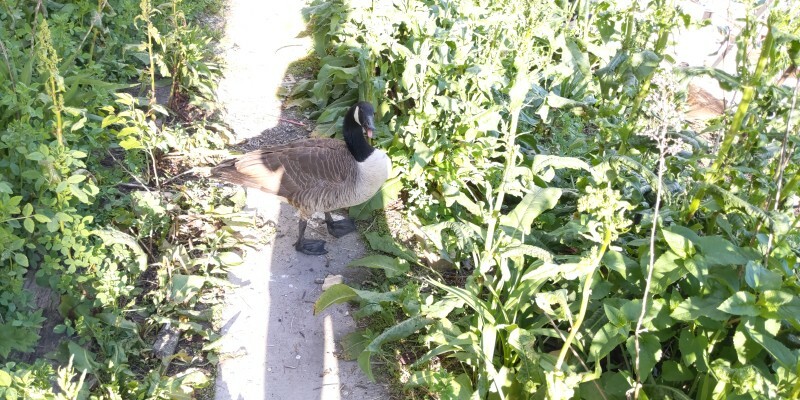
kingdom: Animalia
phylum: Chordata
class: Aves
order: Anseriformes
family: Anatidae
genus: Branta
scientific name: Branta canadensis
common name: Canada goose
